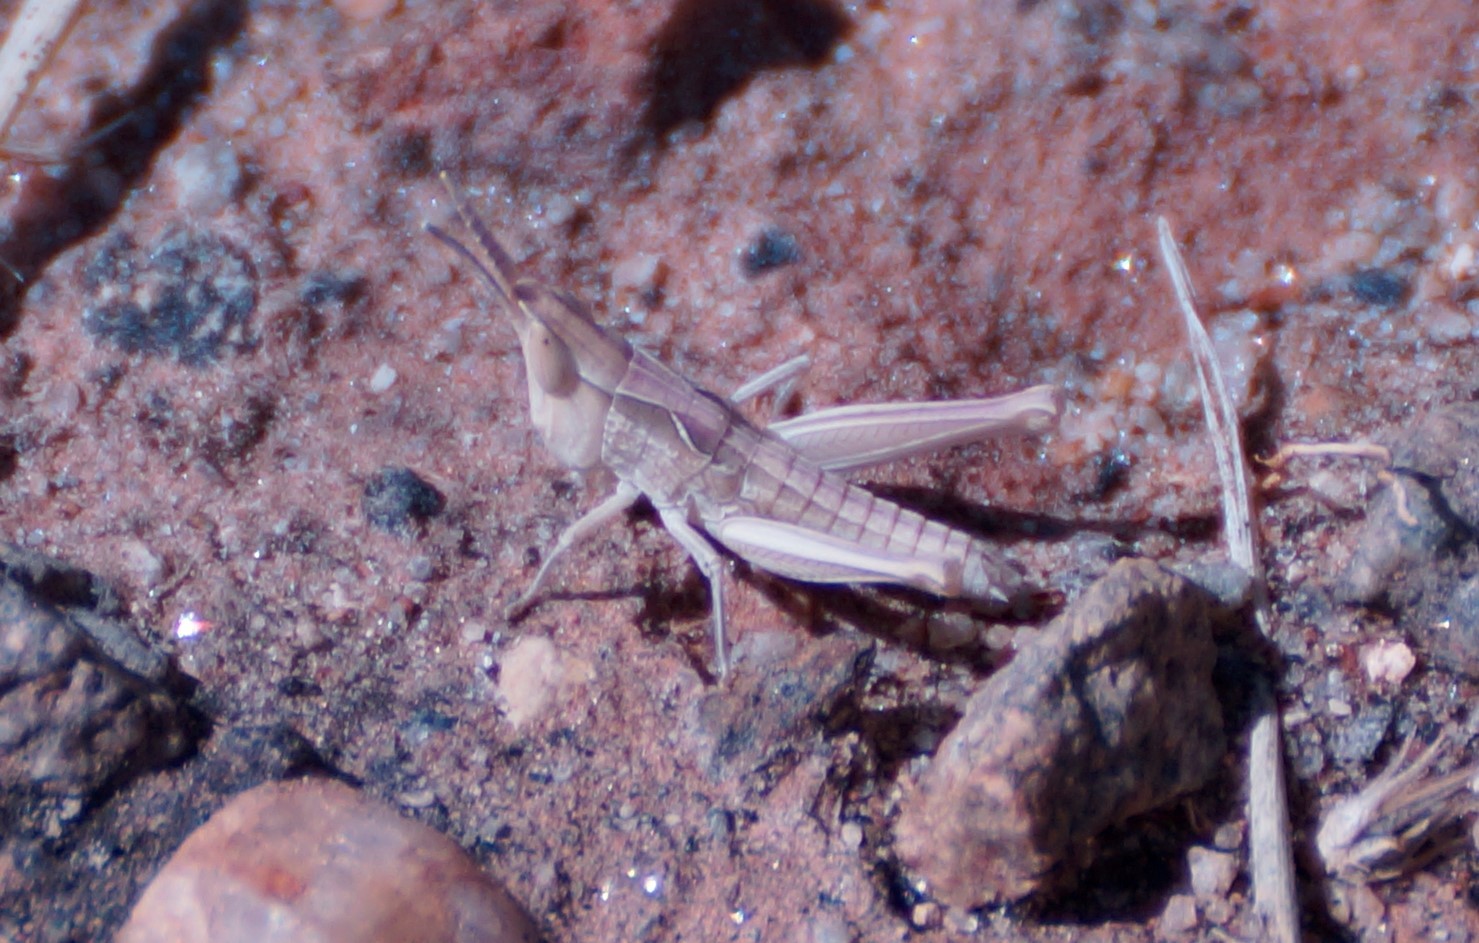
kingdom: Animalia
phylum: Arthropoda
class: Insecta
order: Orthoptera
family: Acrididae
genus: Froggattina
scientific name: Froggattina australis
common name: Froggatt's buzzer
